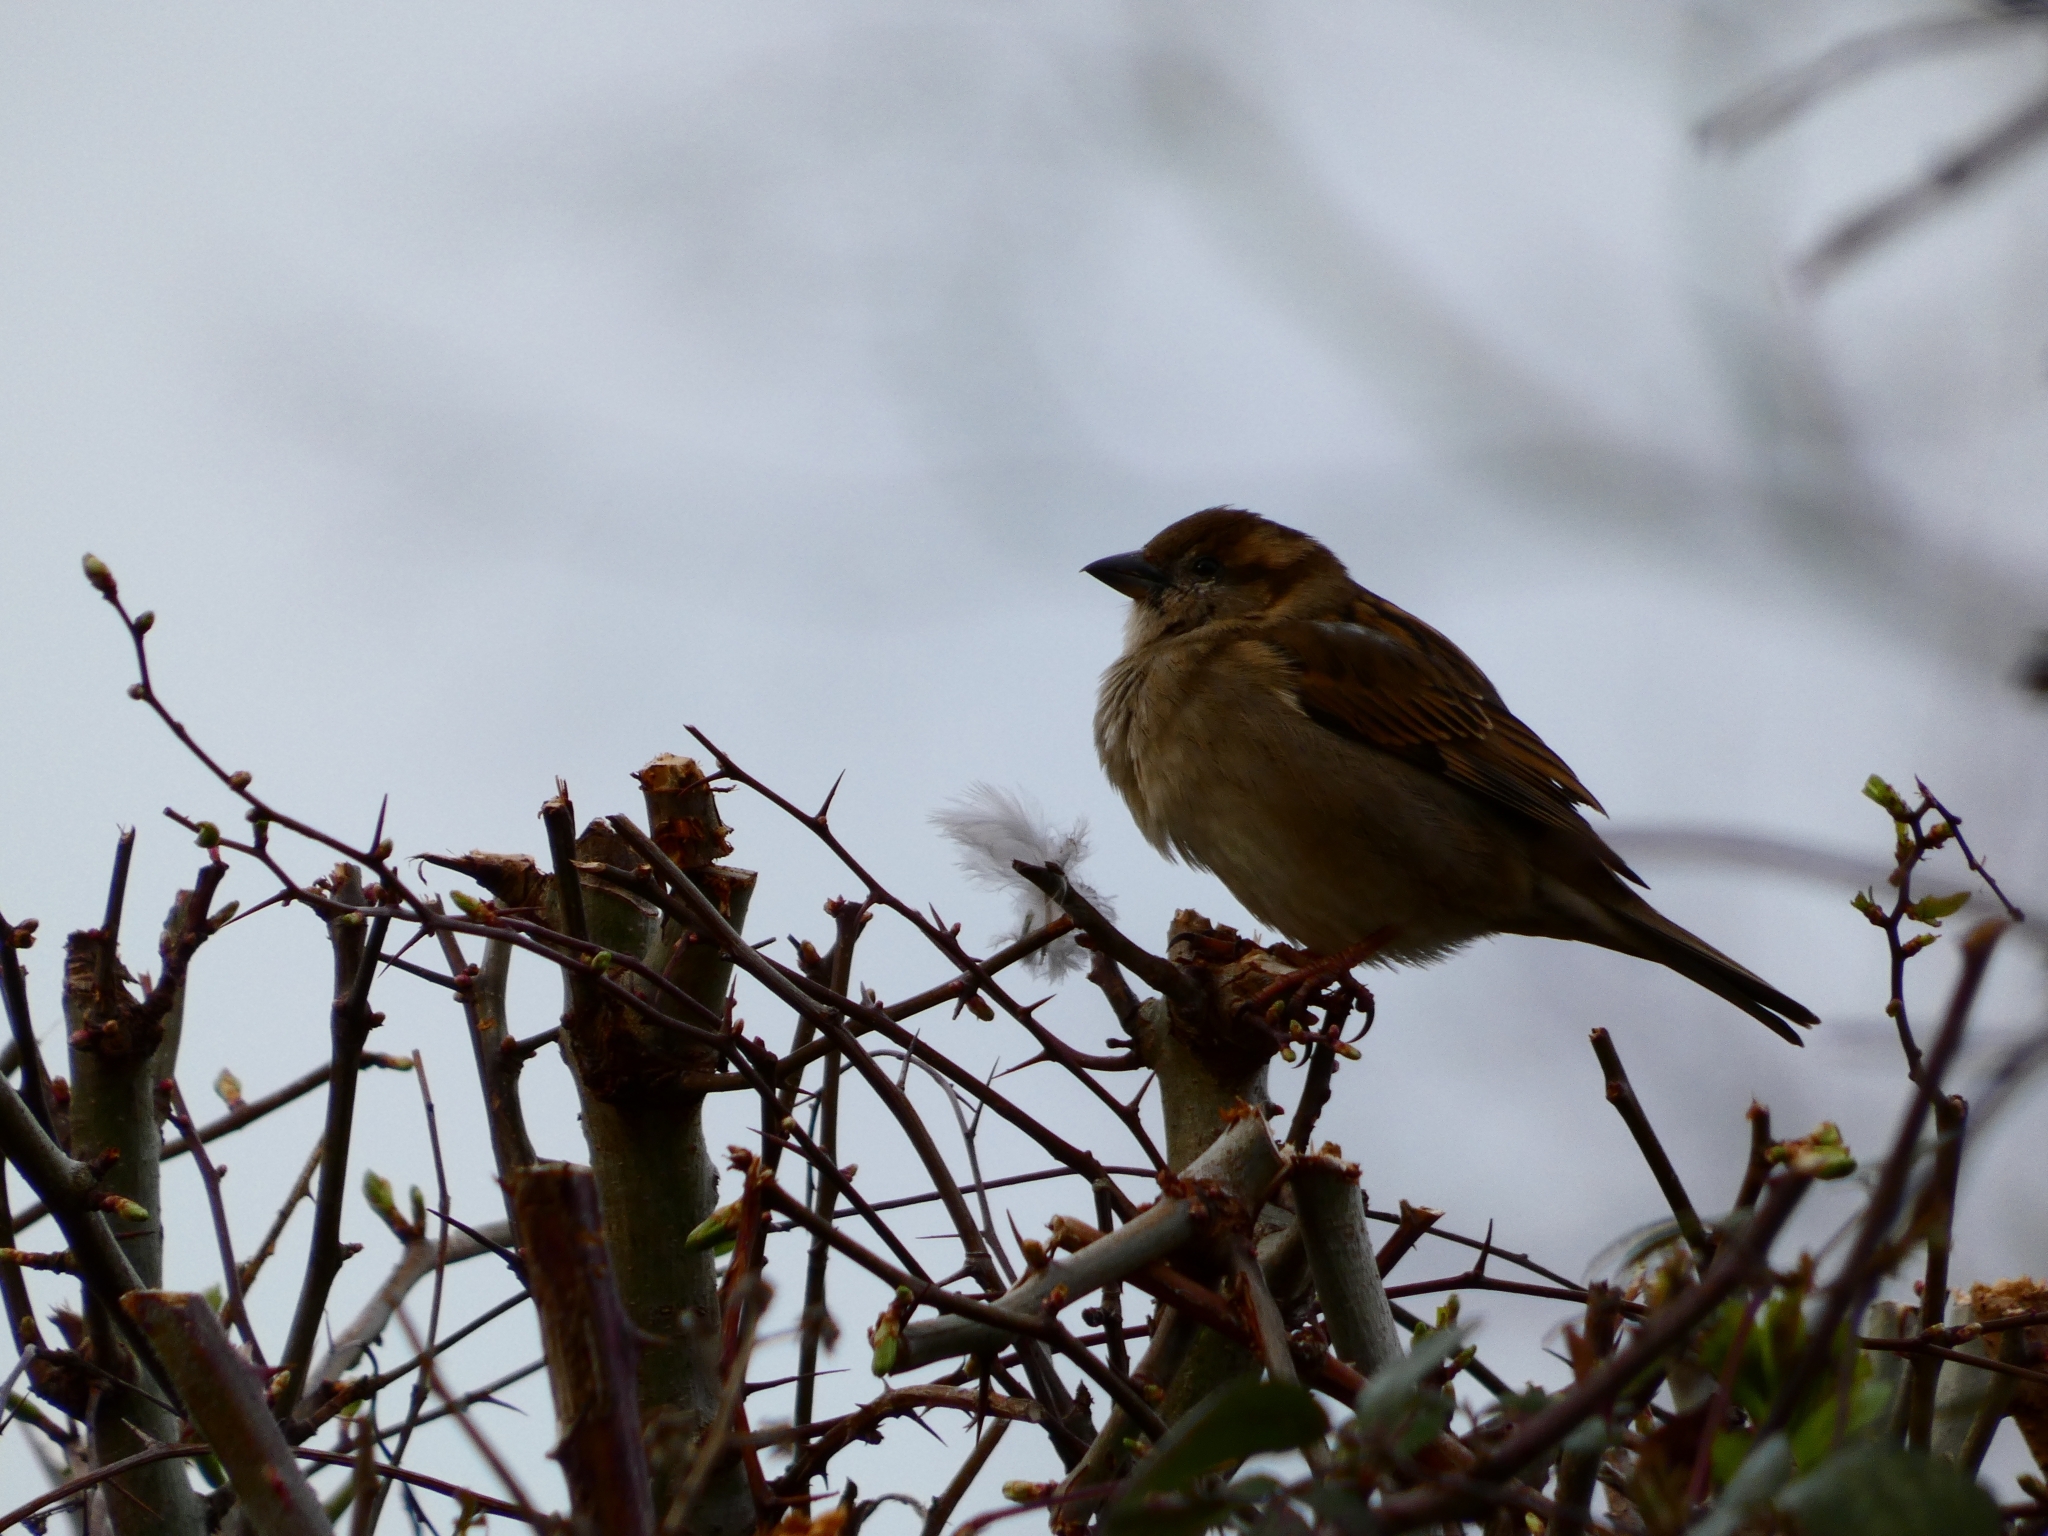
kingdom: Animalia
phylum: Chordata
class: Aves
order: Passeriformes
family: Passeridae
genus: Passer
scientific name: Passer domesticus
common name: House sparrow
